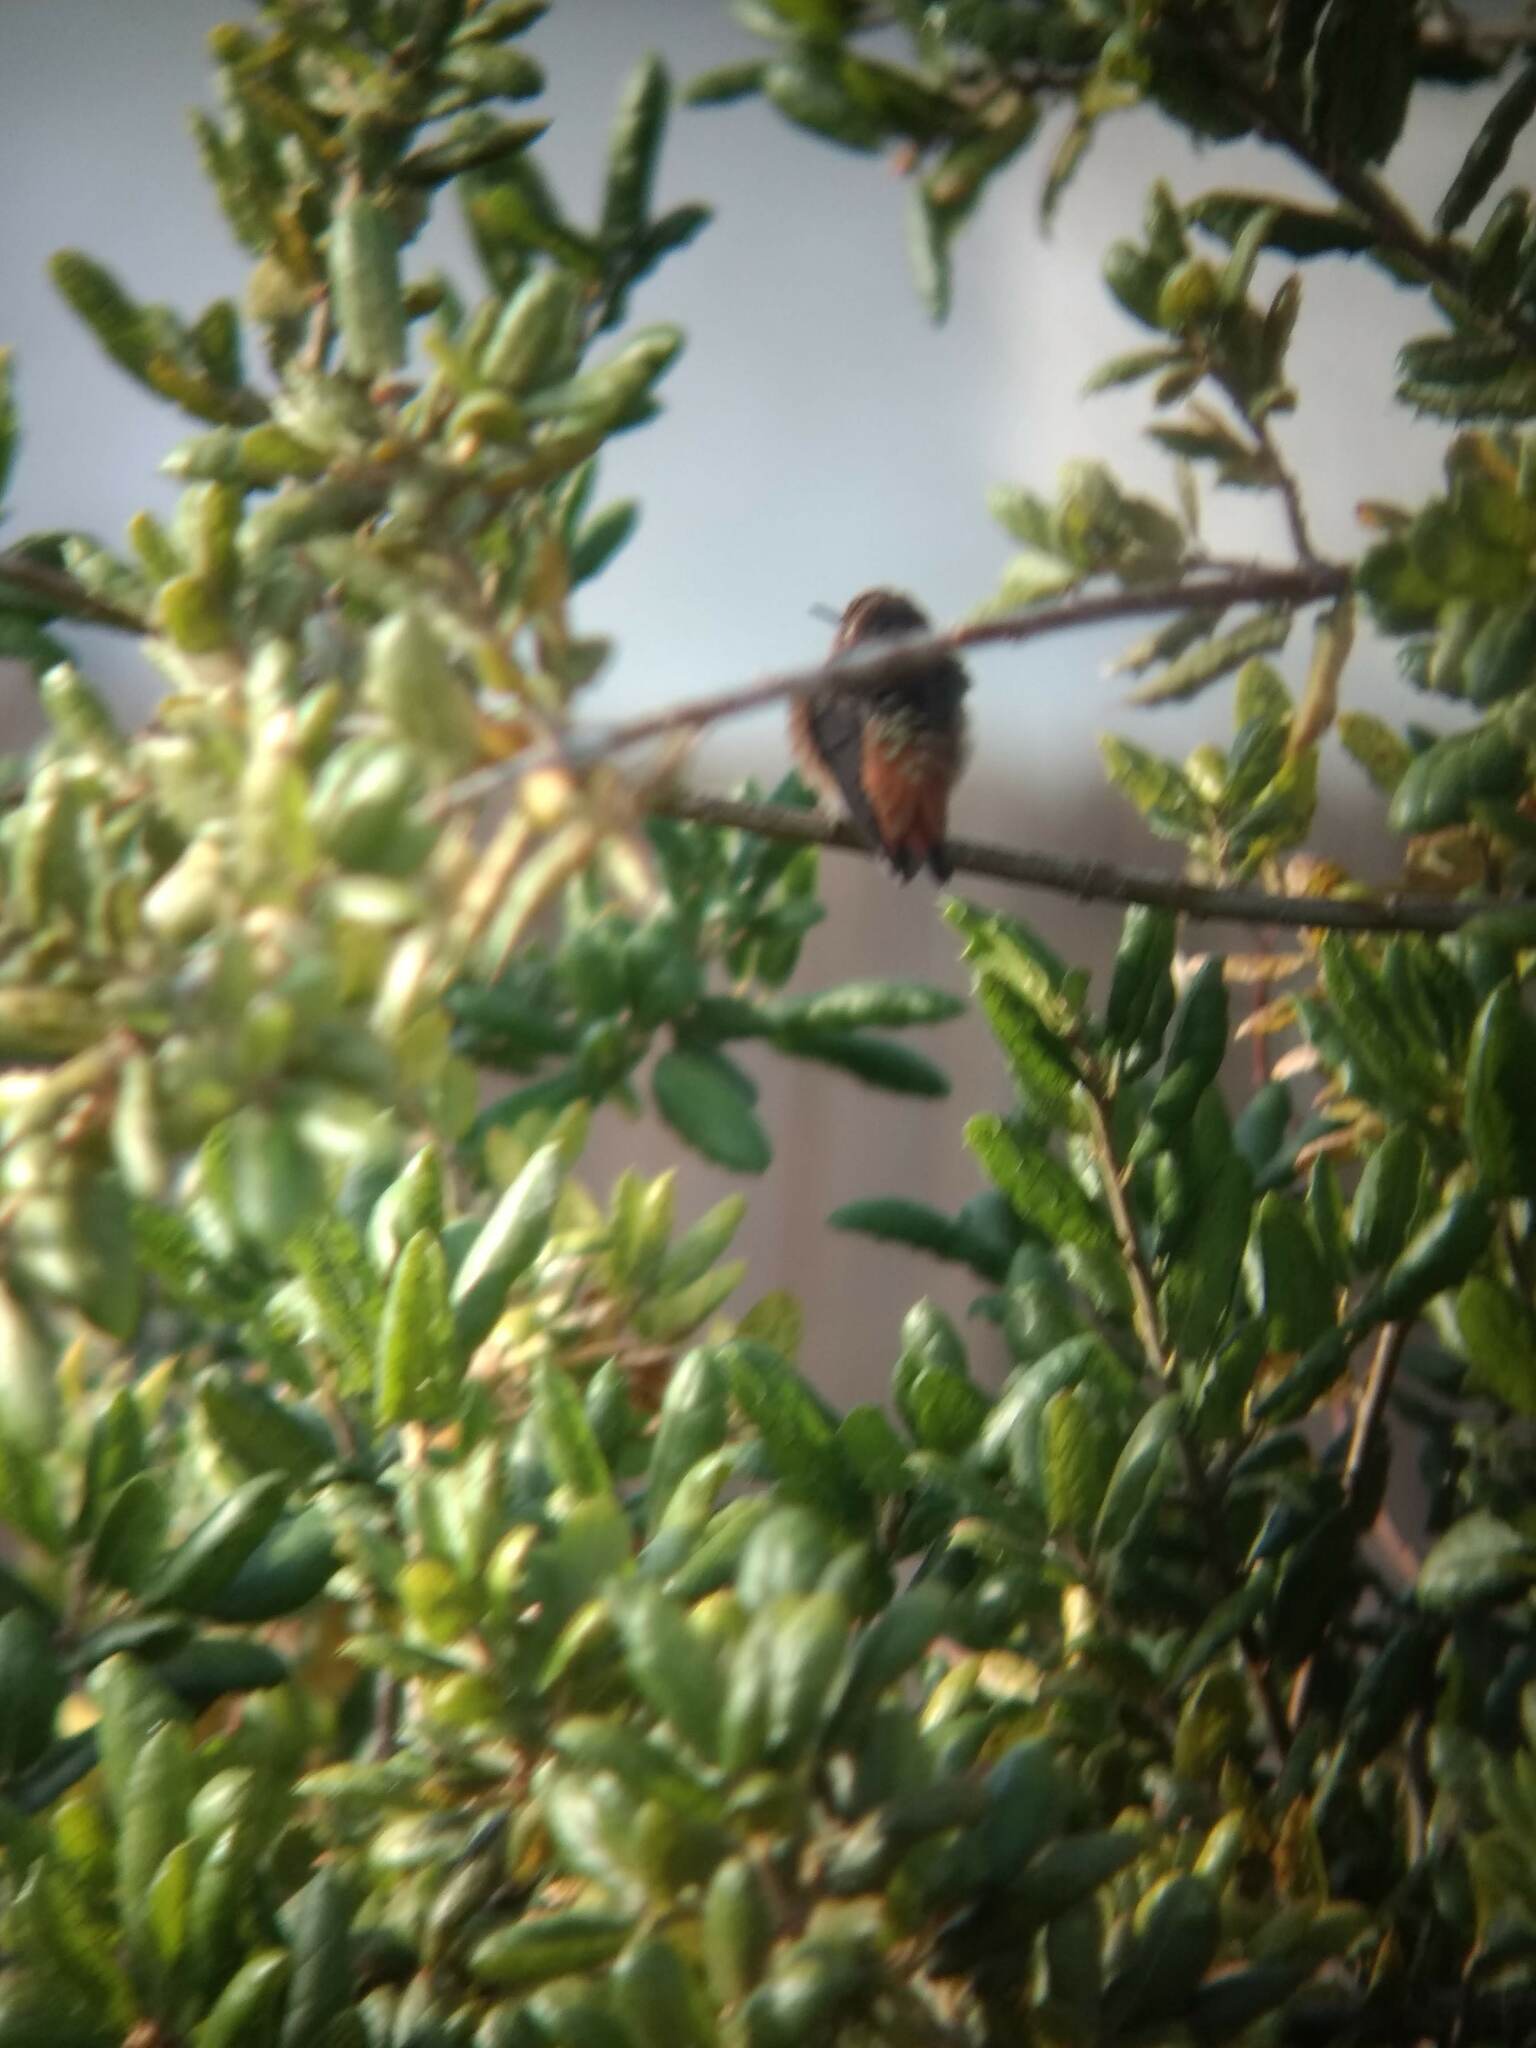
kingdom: Animalia
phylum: Chordata
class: Aves
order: Apodiformes
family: Trochilidae
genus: Selasphorus
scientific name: Selasphorus
